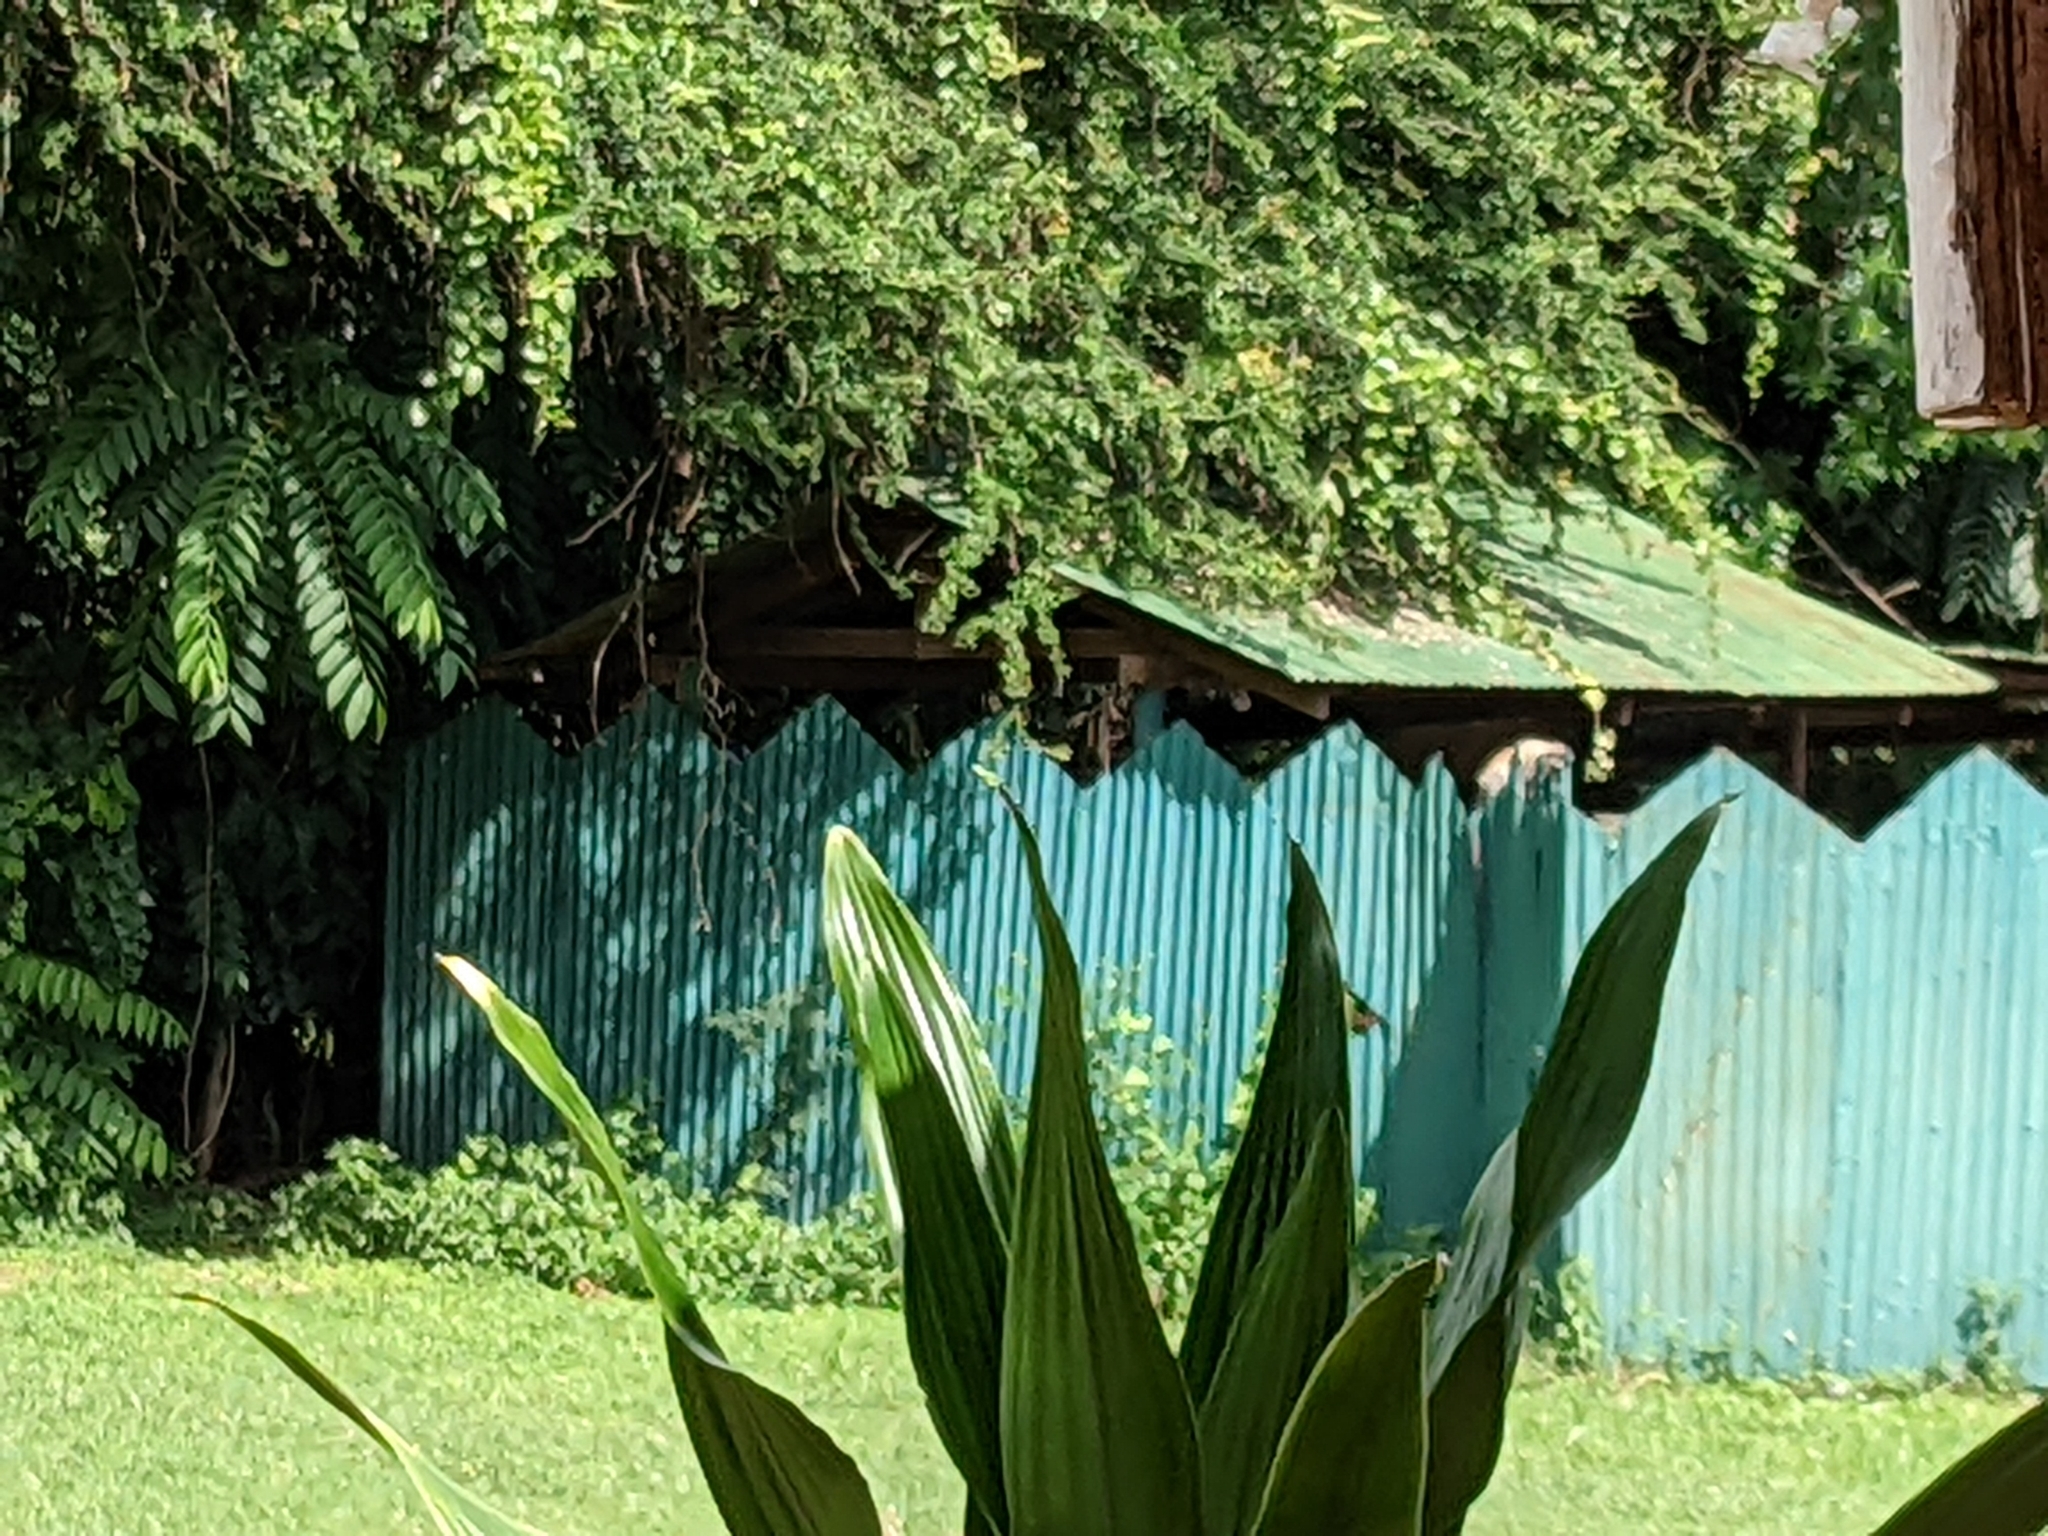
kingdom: Animalia
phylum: Chordata
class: Mammalia
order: Primates
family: Cercopithecidae
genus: Chlorocebus
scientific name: Chlorocebus pygerythrus
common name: Vervet monkey
